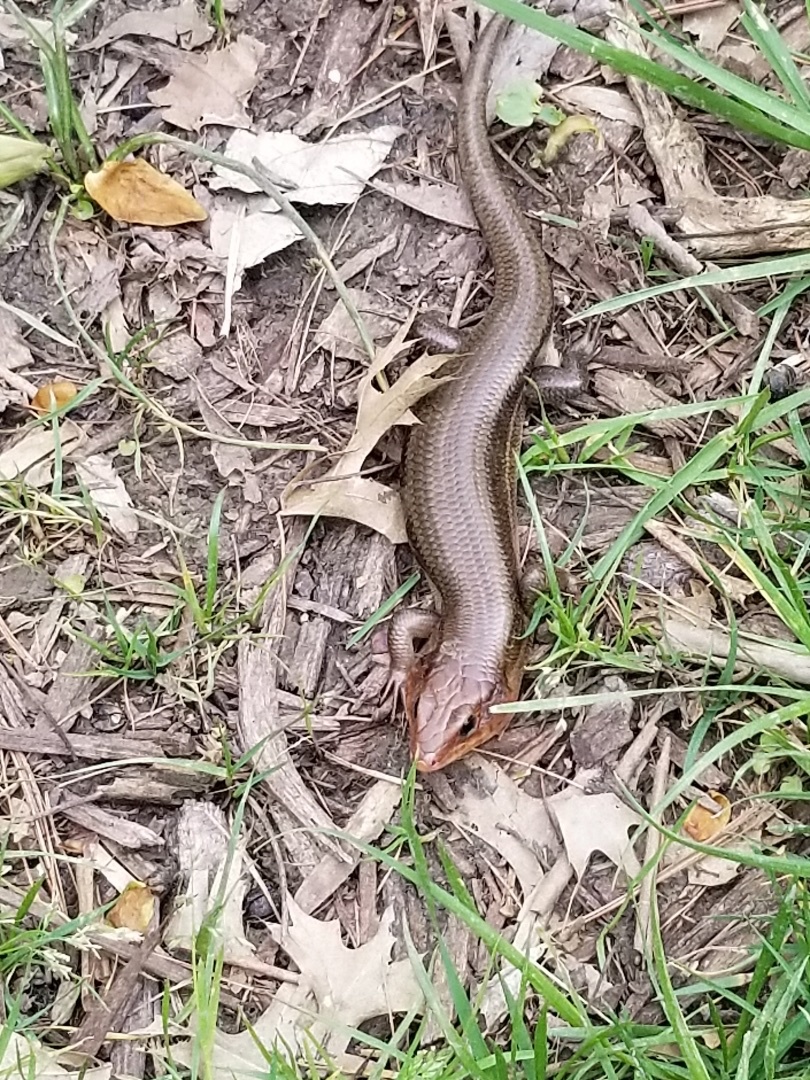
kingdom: Animalia
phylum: Chordata
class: Squamata
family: Scincidae
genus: Plestiodon
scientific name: Plestiodon fasciatus
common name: Five-lined skink
